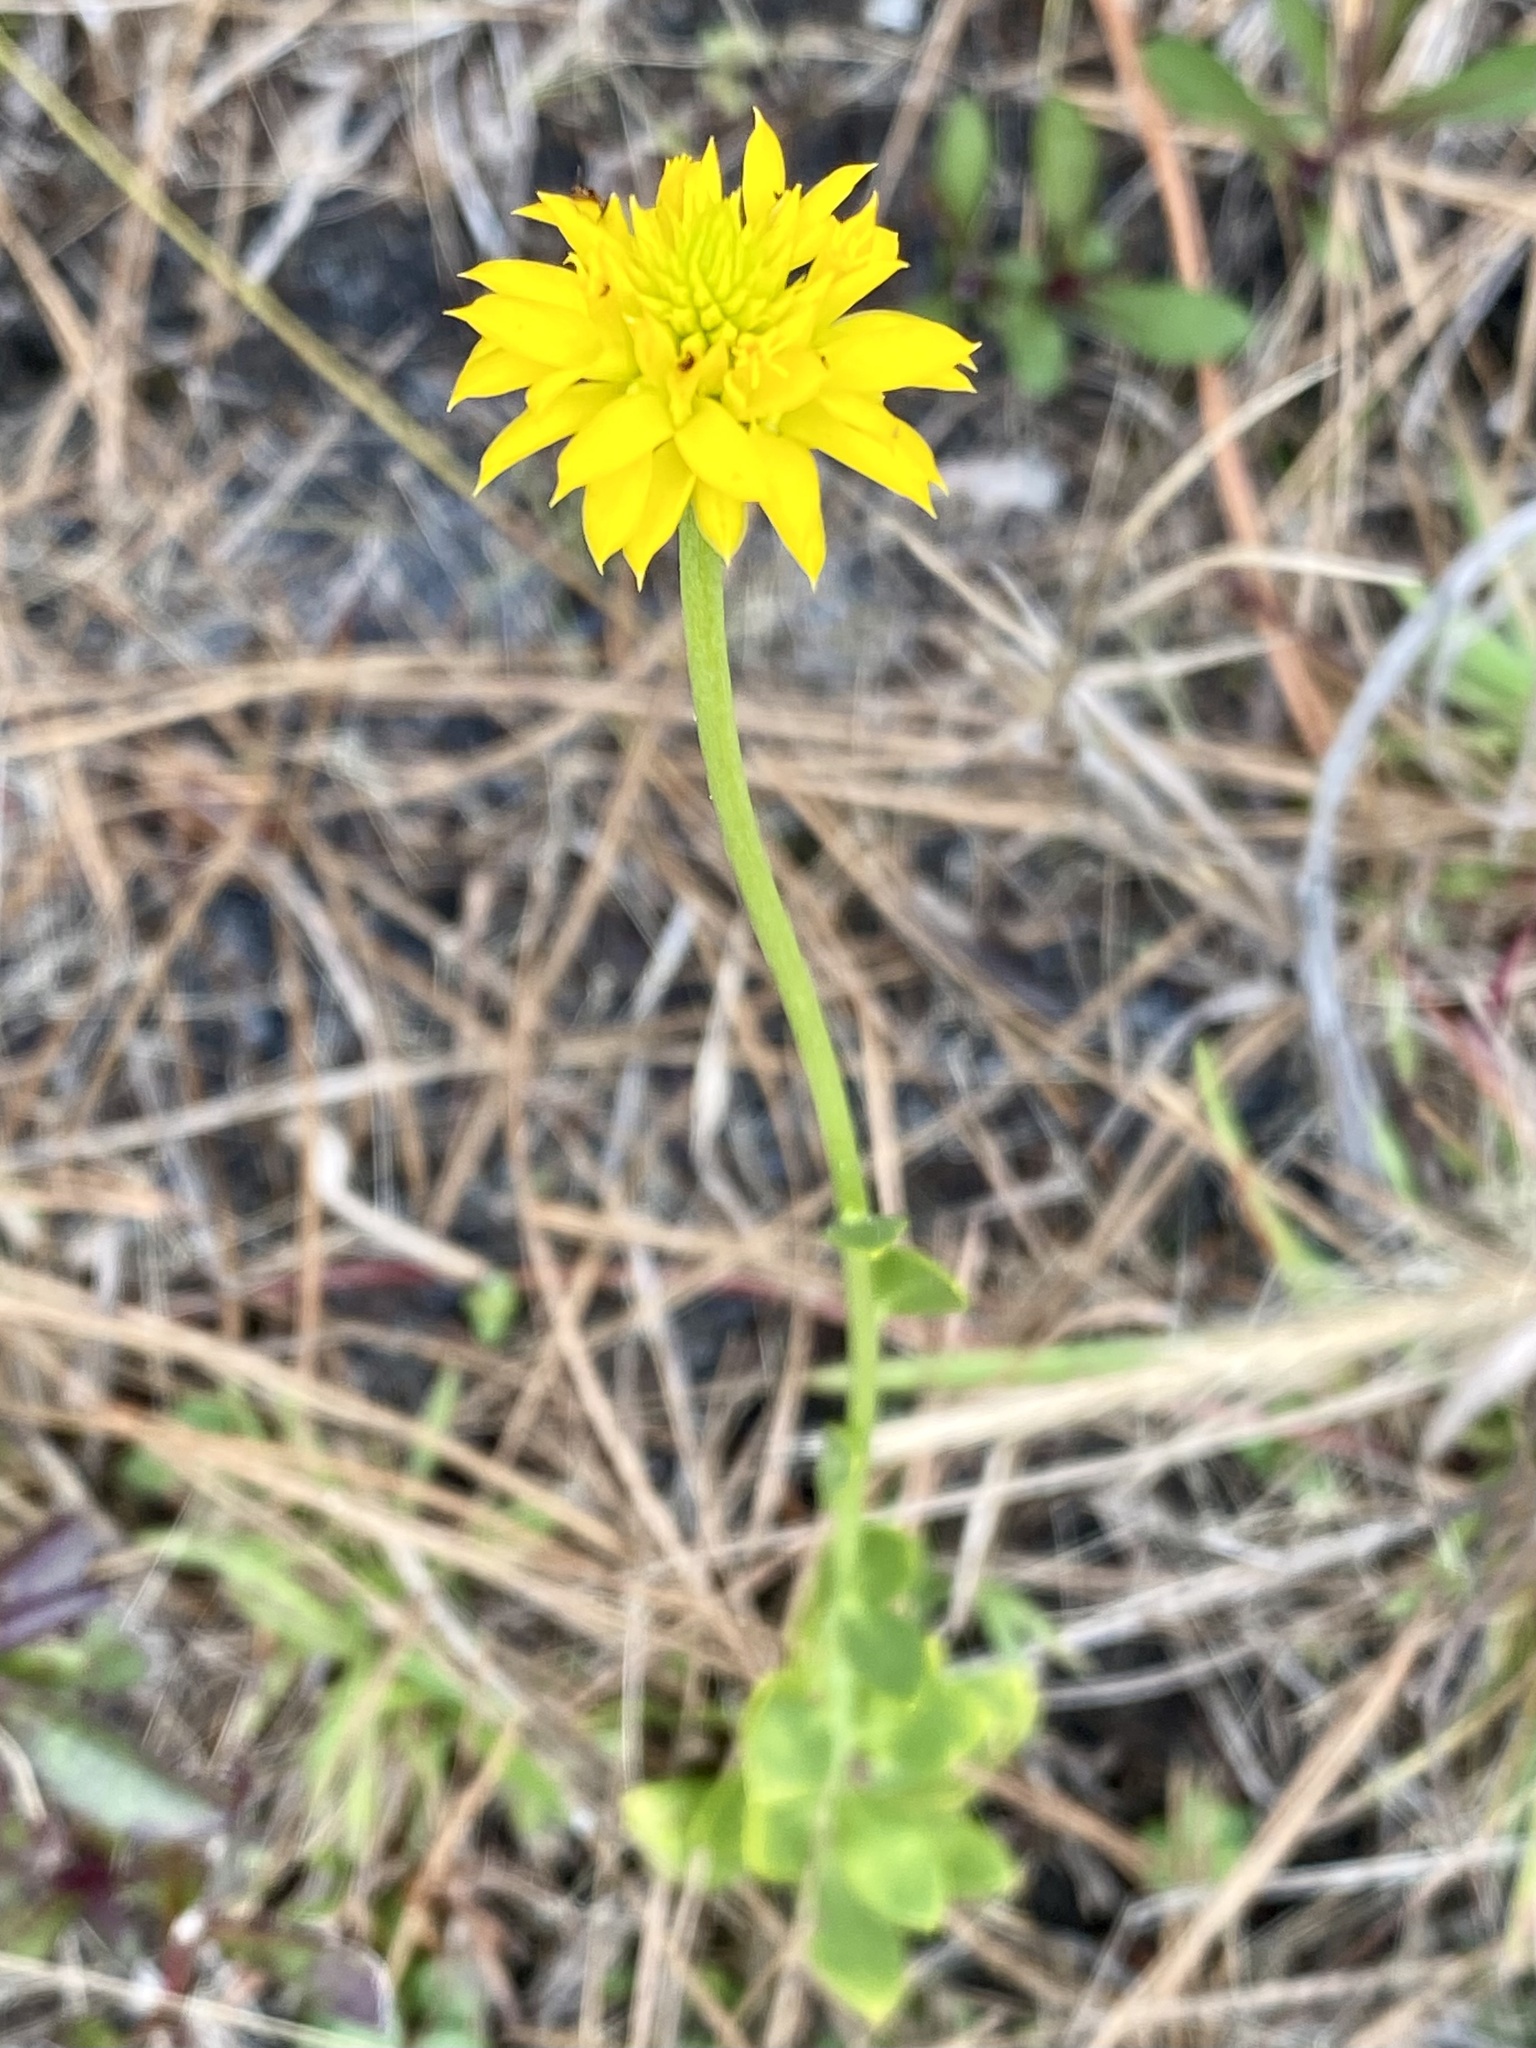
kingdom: Plantae
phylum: Tracheophyta
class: Magnoliopsida
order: Fabales
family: Polygalaceae
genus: Polygala
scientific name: Polygala rugelii
